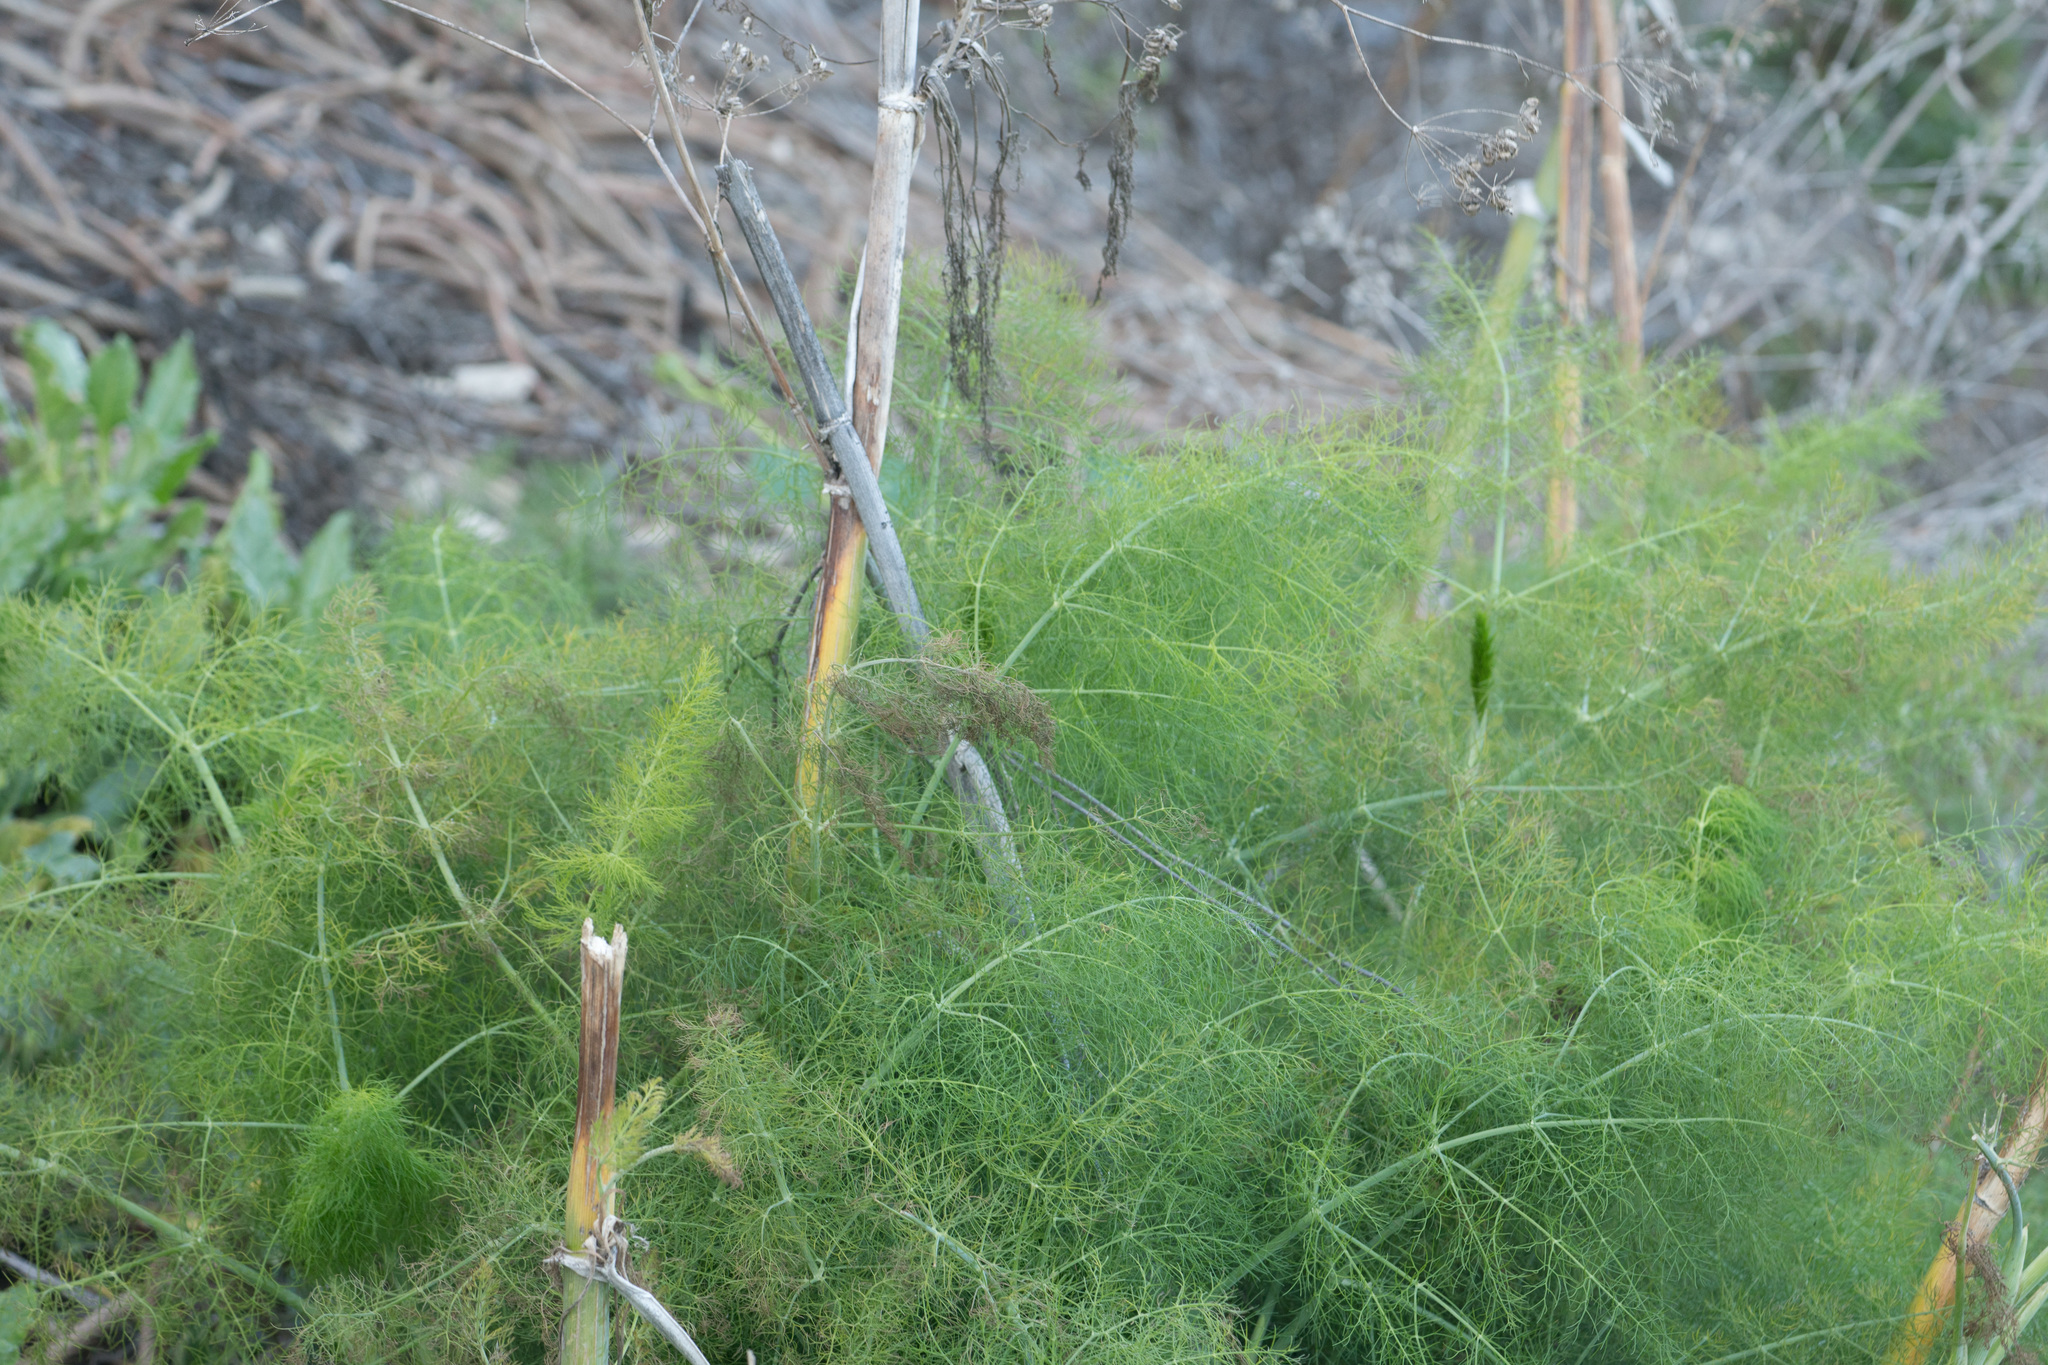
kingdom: Plantae
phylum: Tracheophyta
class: Magnoliopsida
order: Apiales
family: Apiaceae
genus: Foeniculum
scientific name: Foeniculum vulgare
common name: Fennel
